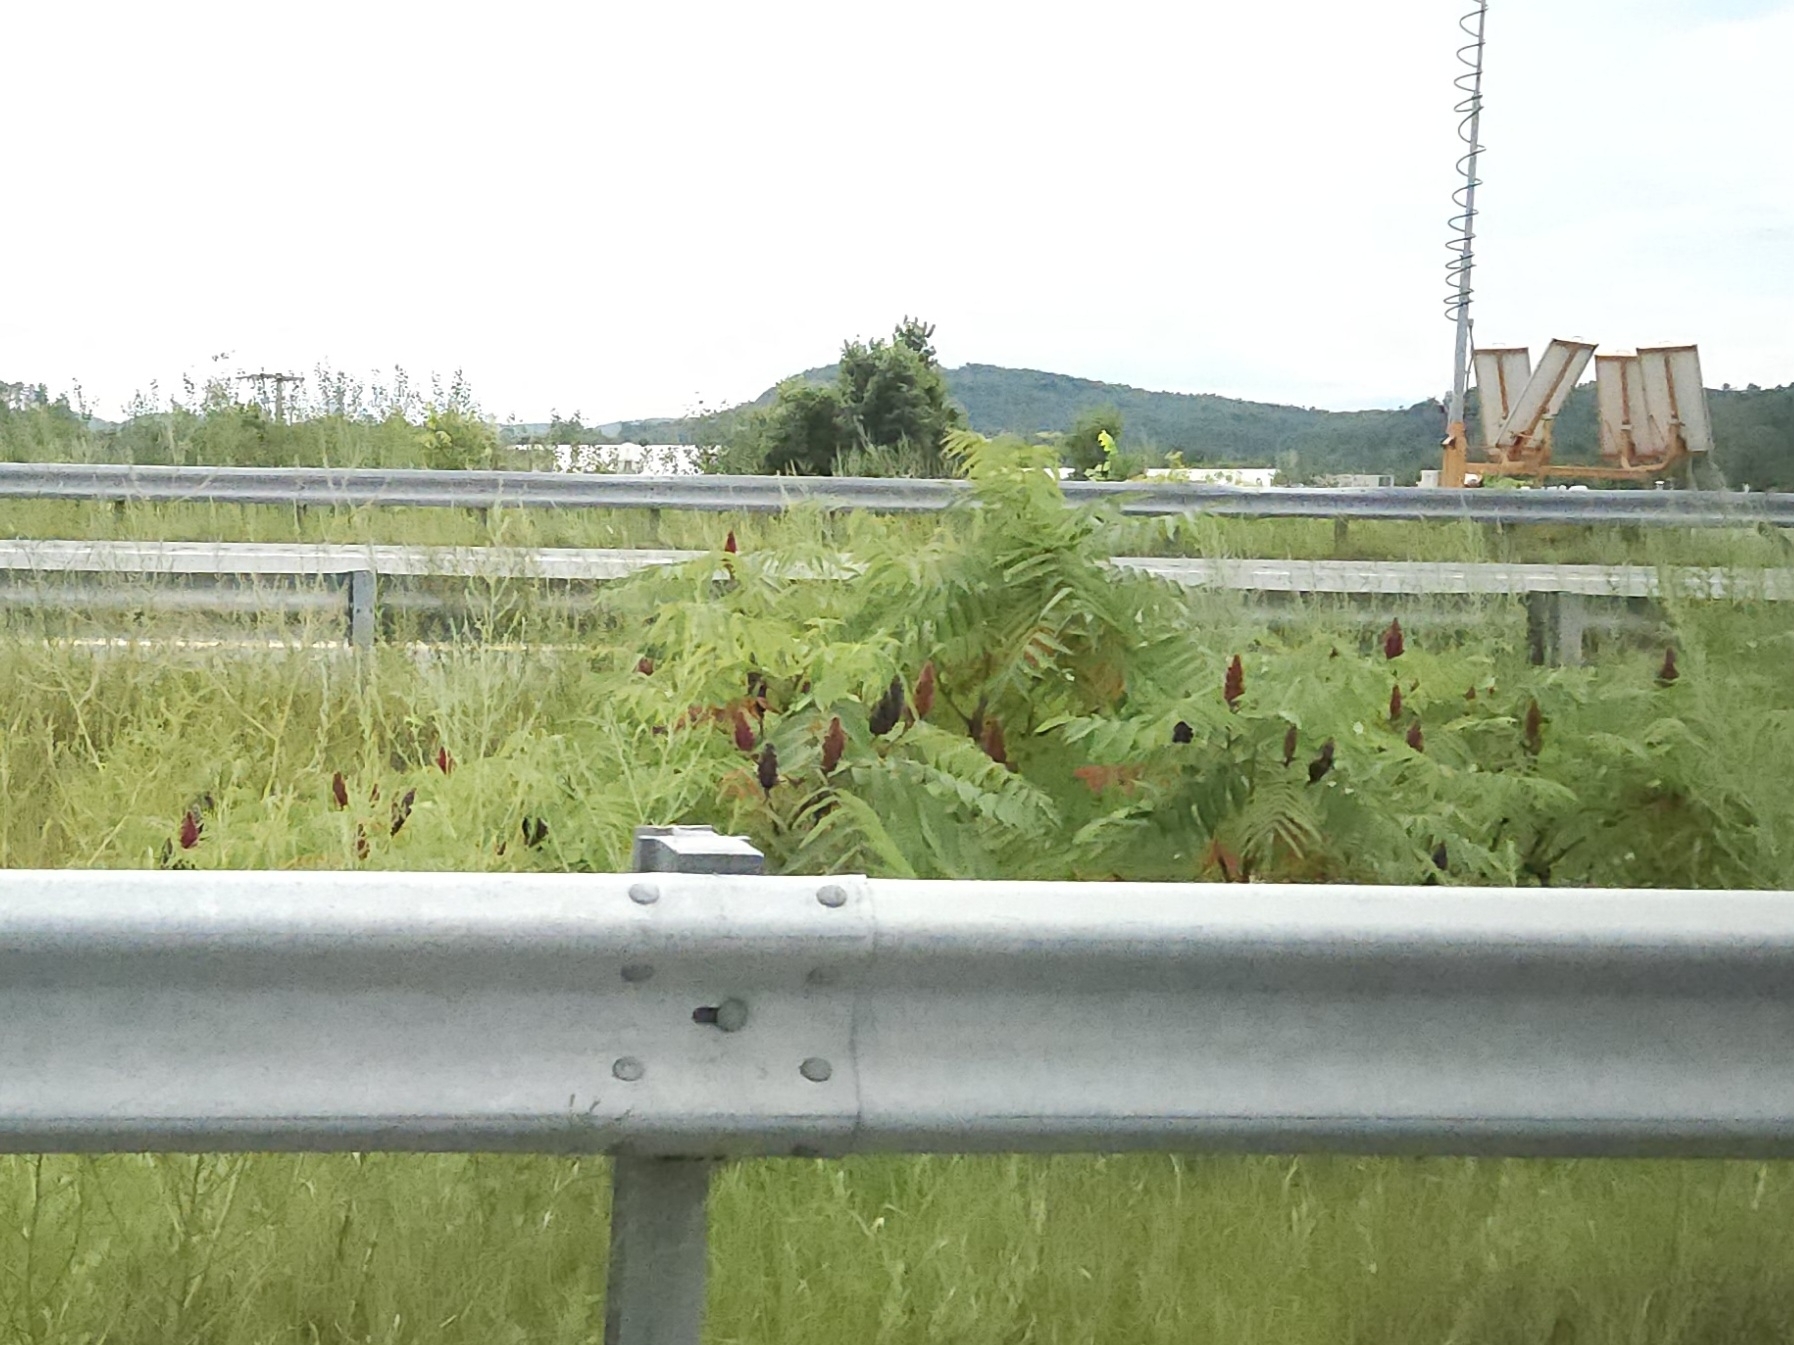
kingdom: Plantae
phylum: Tracheophyta
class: Magnoliopsida
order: Sapindales
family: Anacardiaceae
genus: Rhus
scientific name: Rhus typhina
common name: Staghorn sumac
